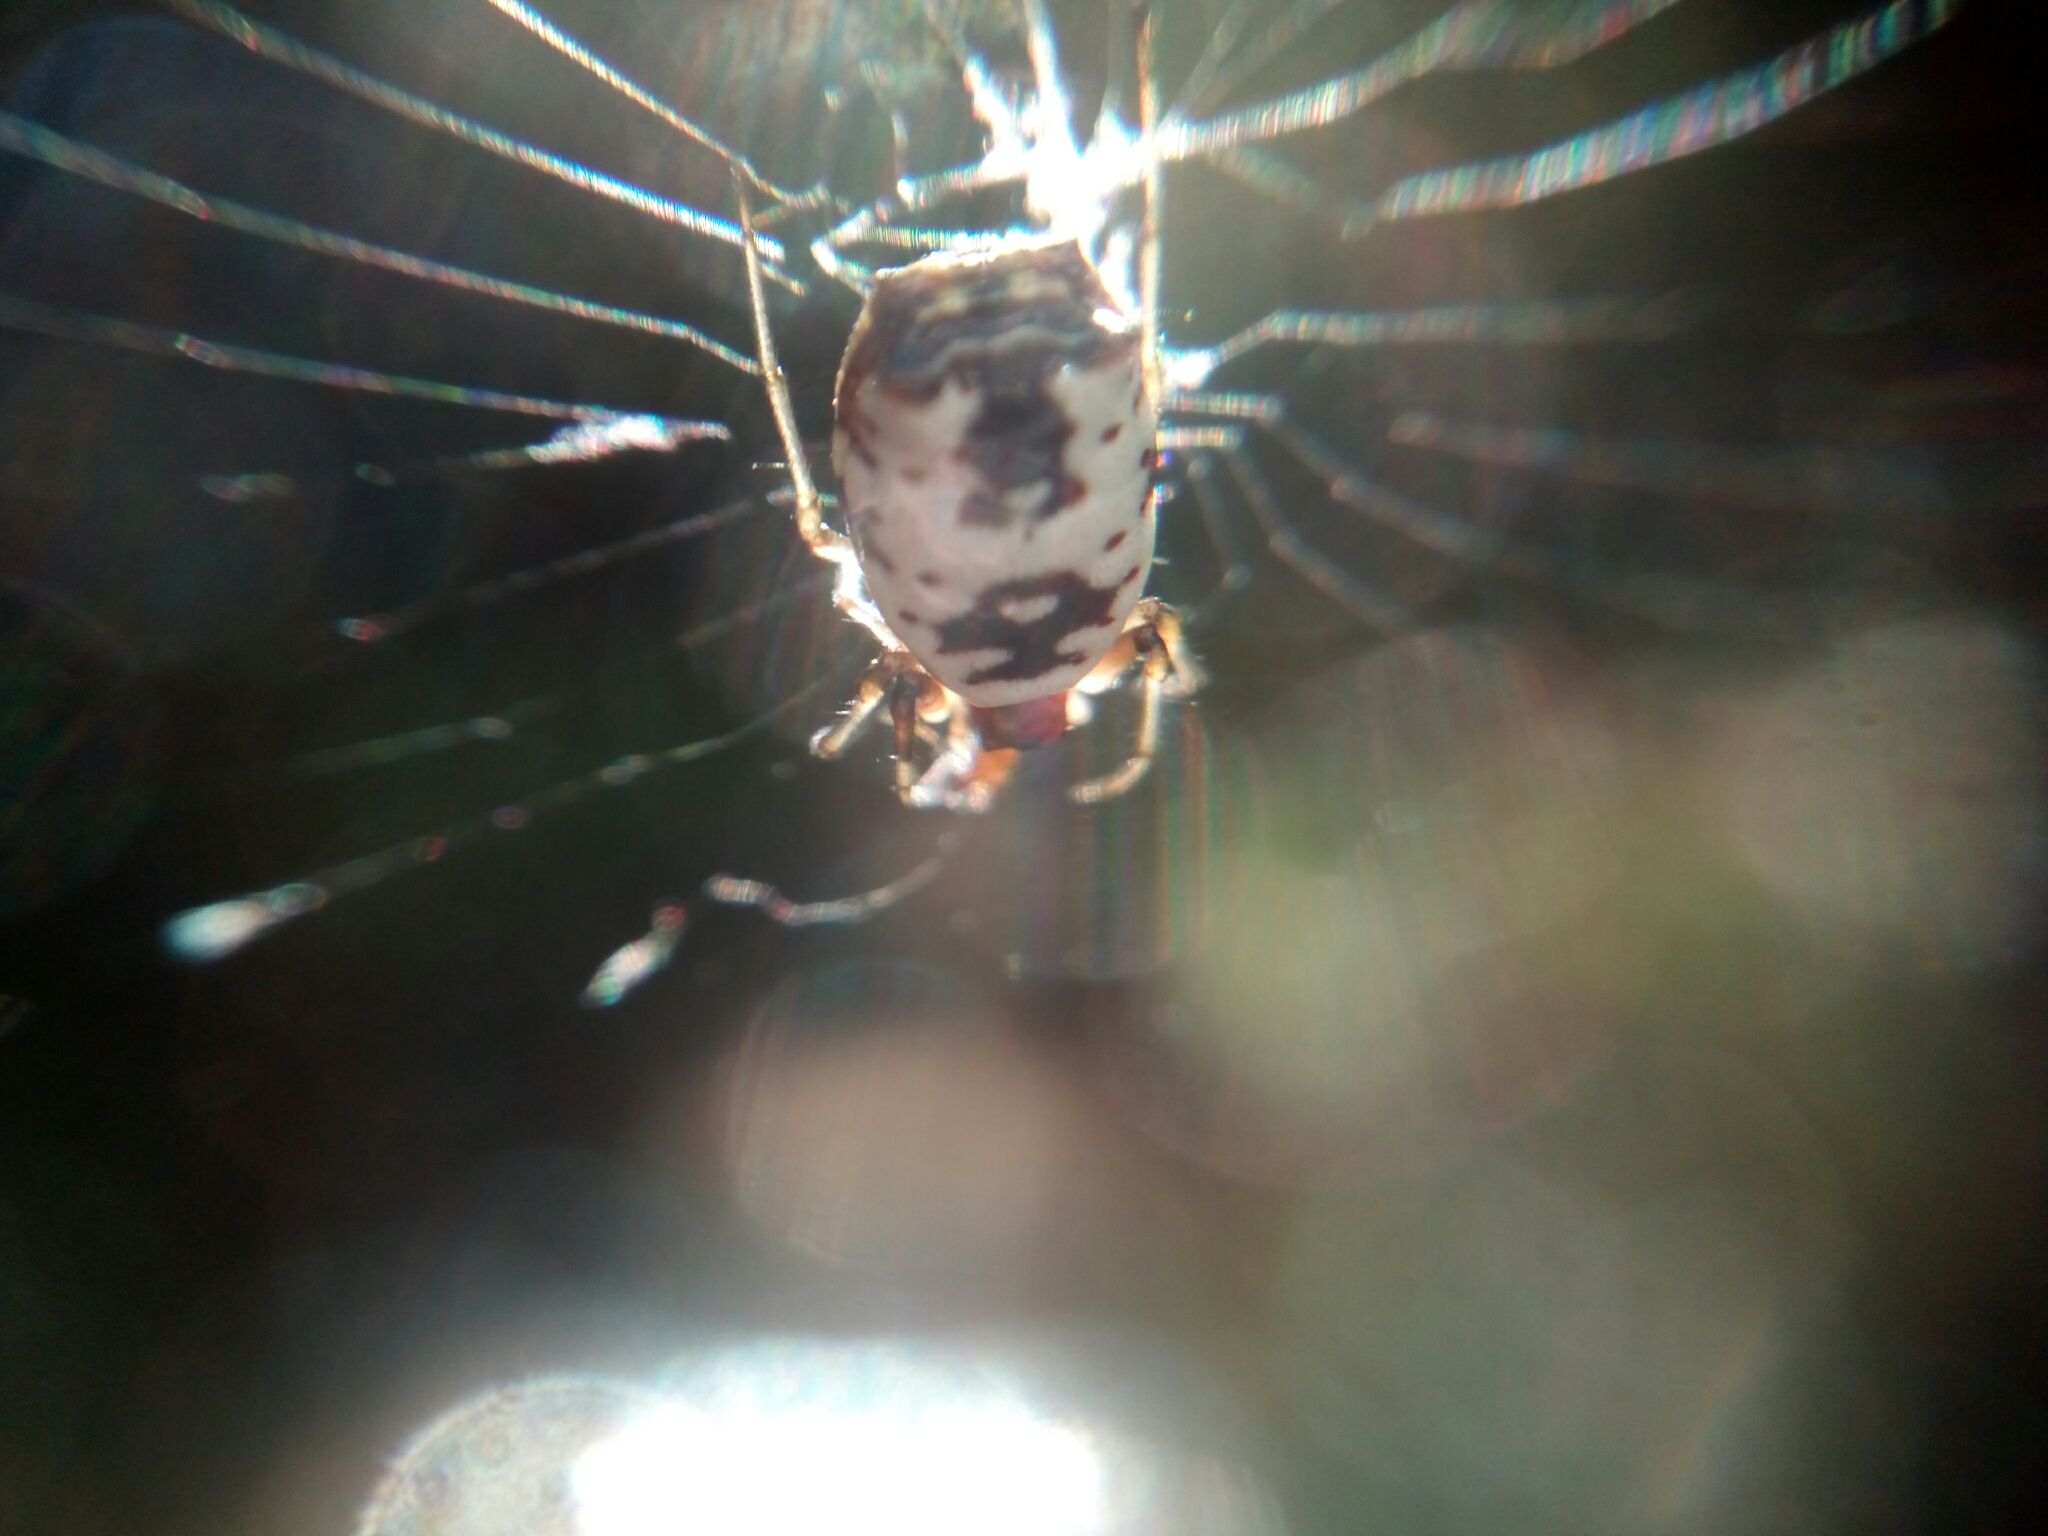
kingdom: Animalia
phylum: Arthropoda
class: Arachnida
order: Araneae
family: Araneidae
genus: Micrathena
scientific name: Micrathena mitrata
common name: Orb weavers
